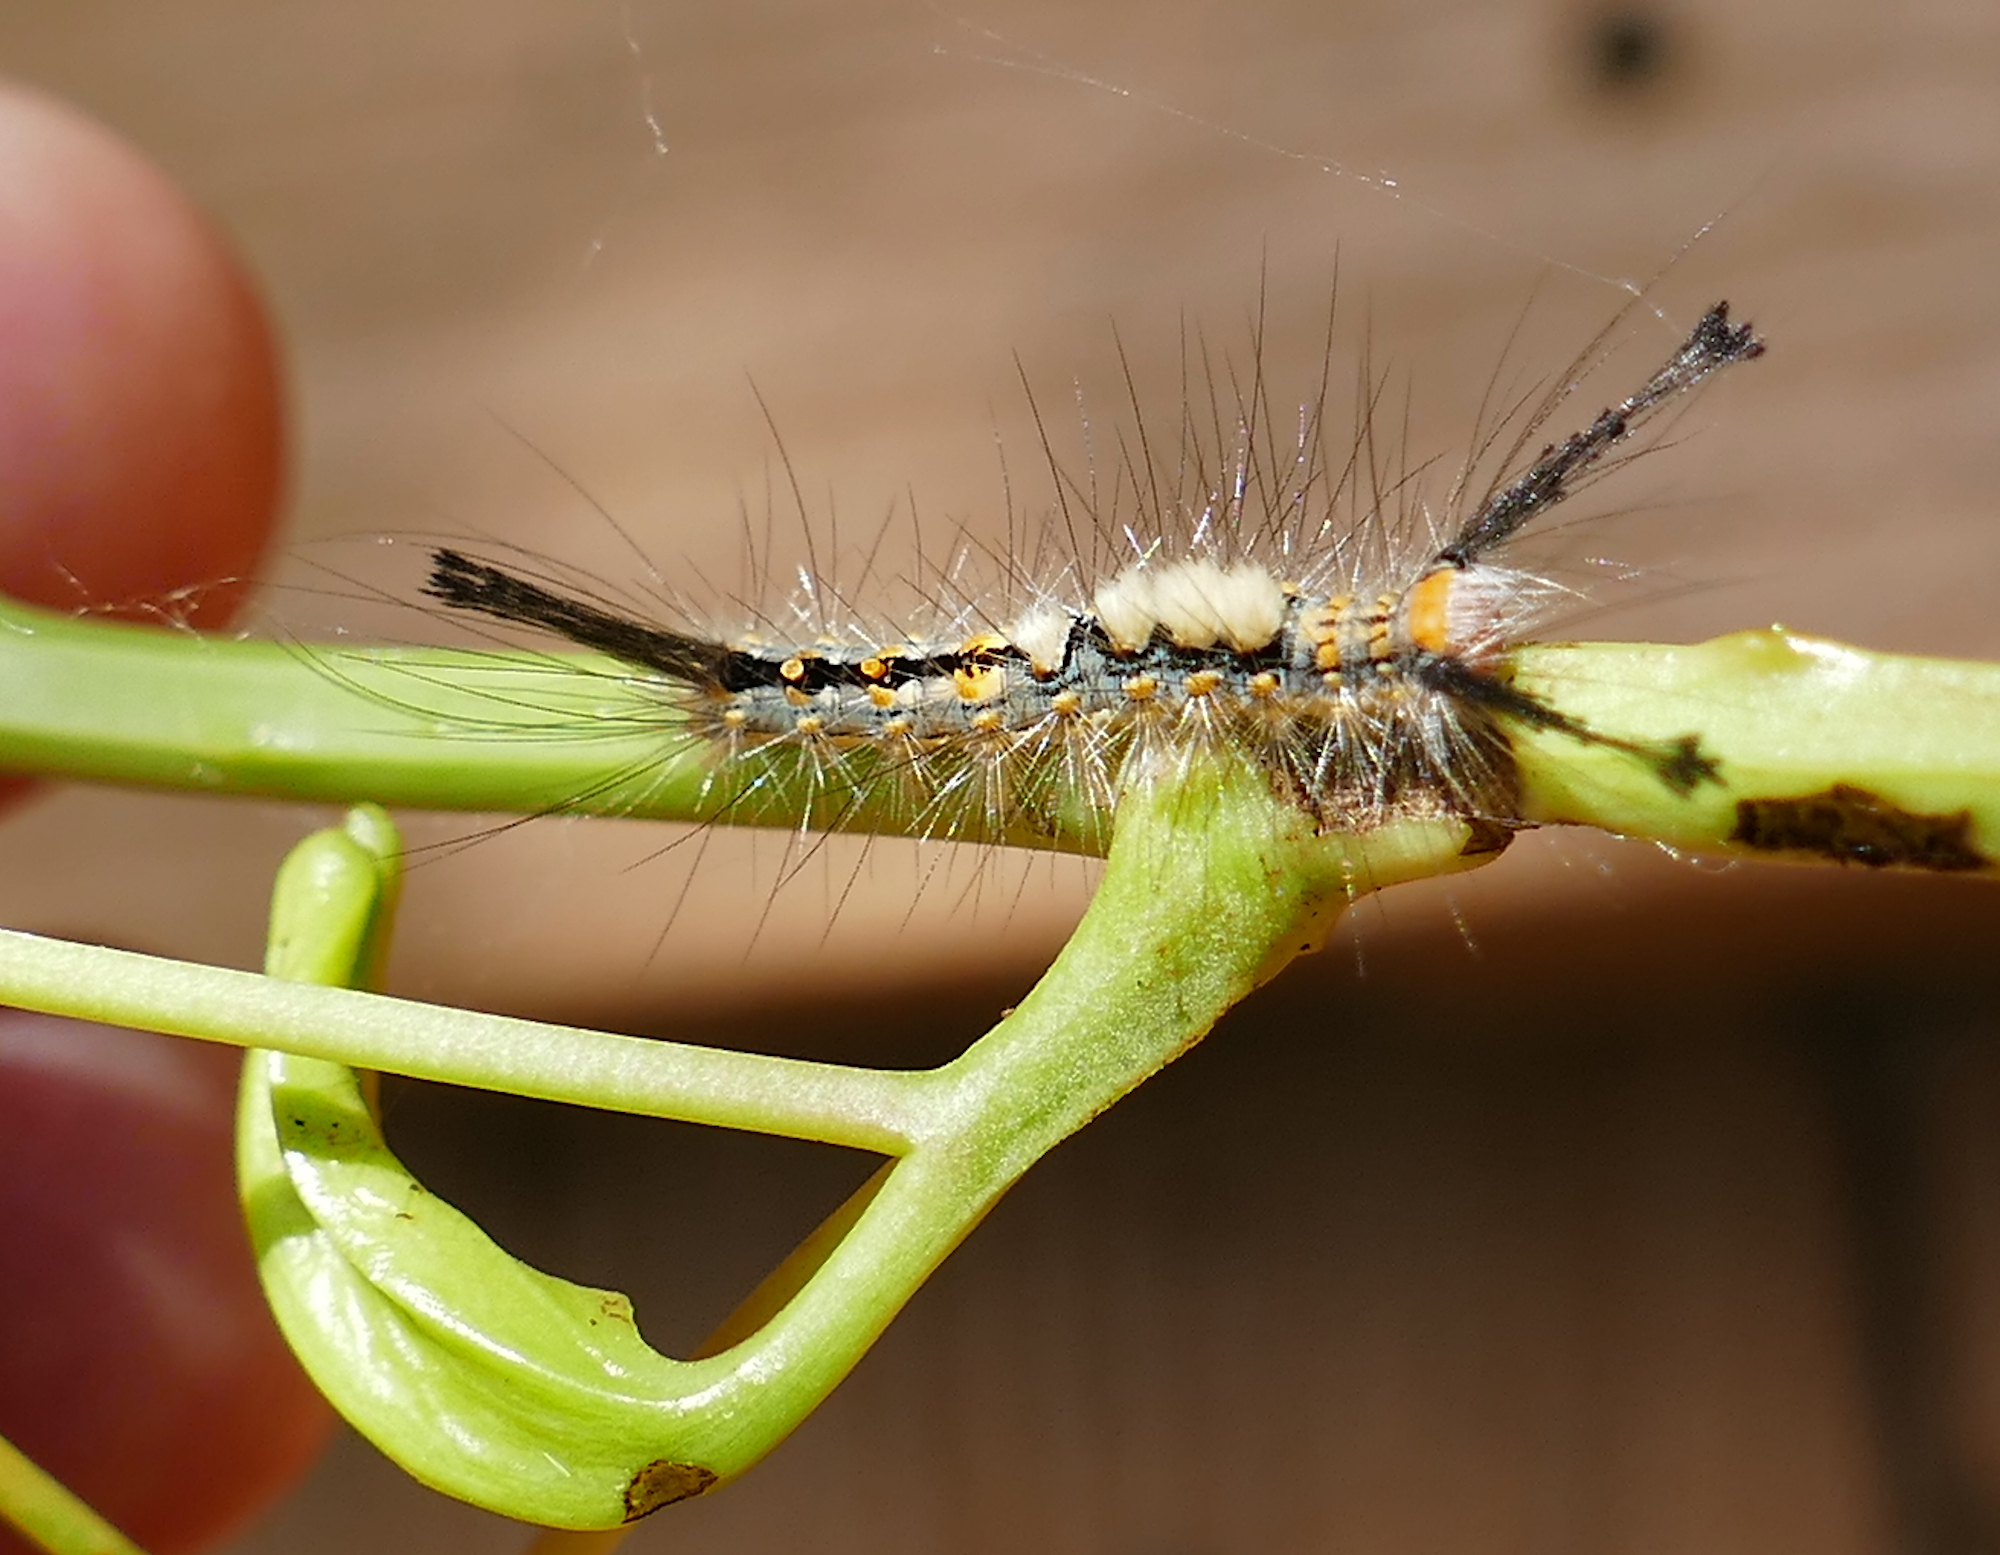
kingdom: Animalia
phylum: Arthropoda
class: Insecta
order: Lepidoptera
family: Erebidae
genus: Orgyia
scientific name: Orgyia detrita
